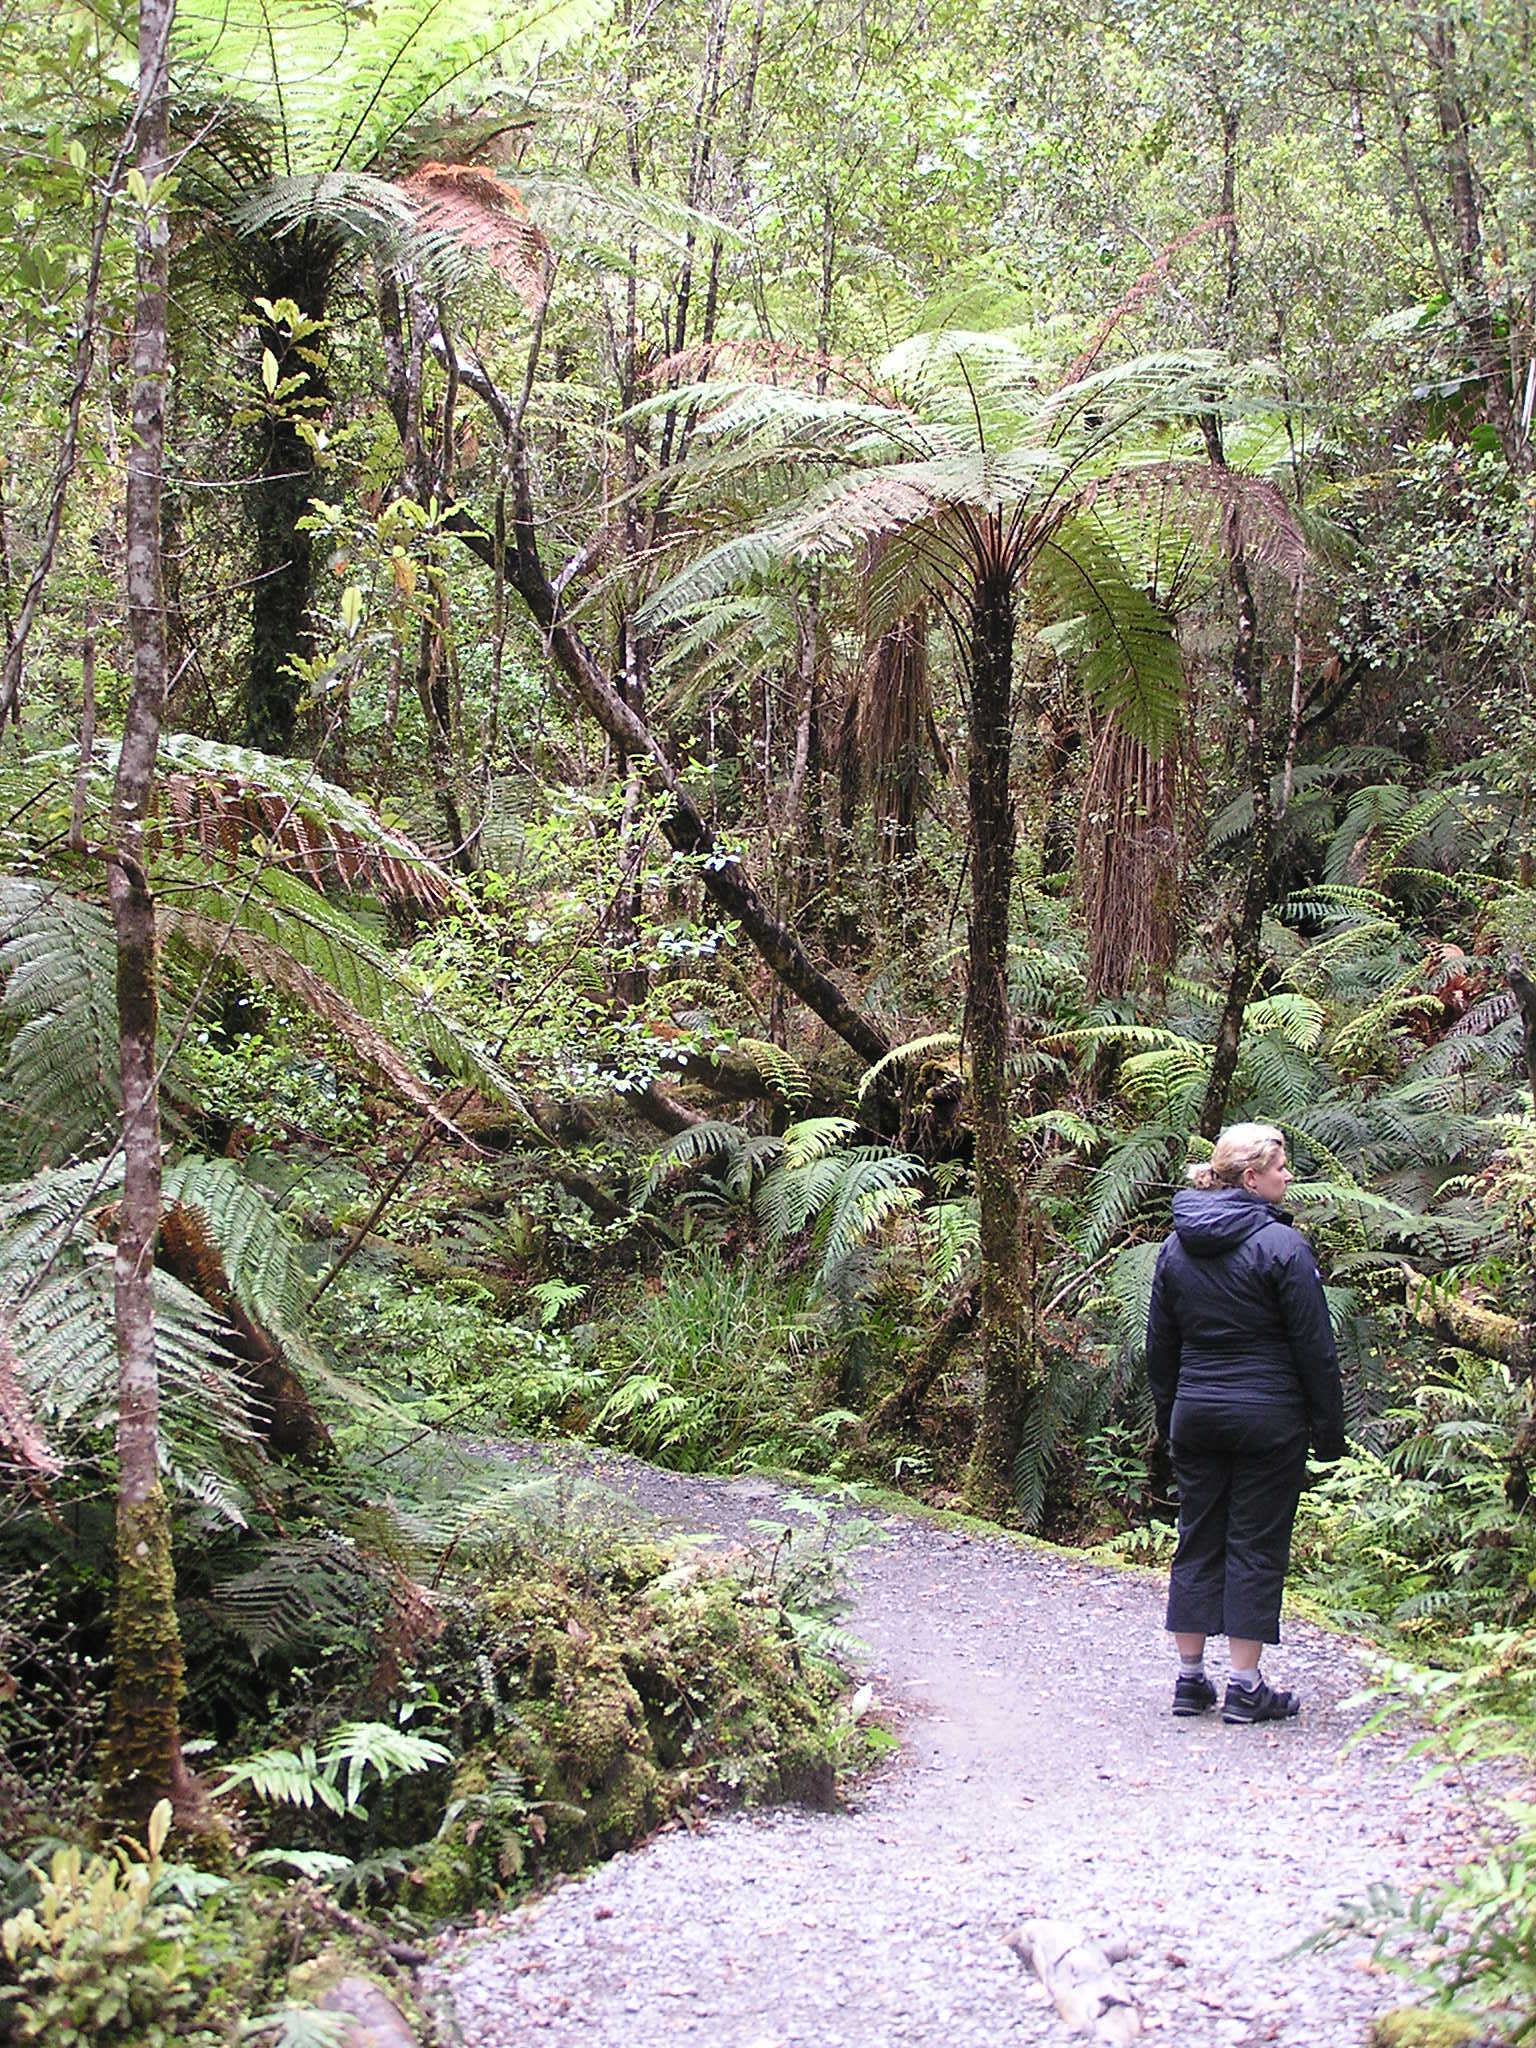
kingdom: Plantae
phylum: Tracheophyta
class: Polypodiopsida
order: Cyatheales
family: Cyatheaceae
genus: Cyathea
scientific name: Cyathea
